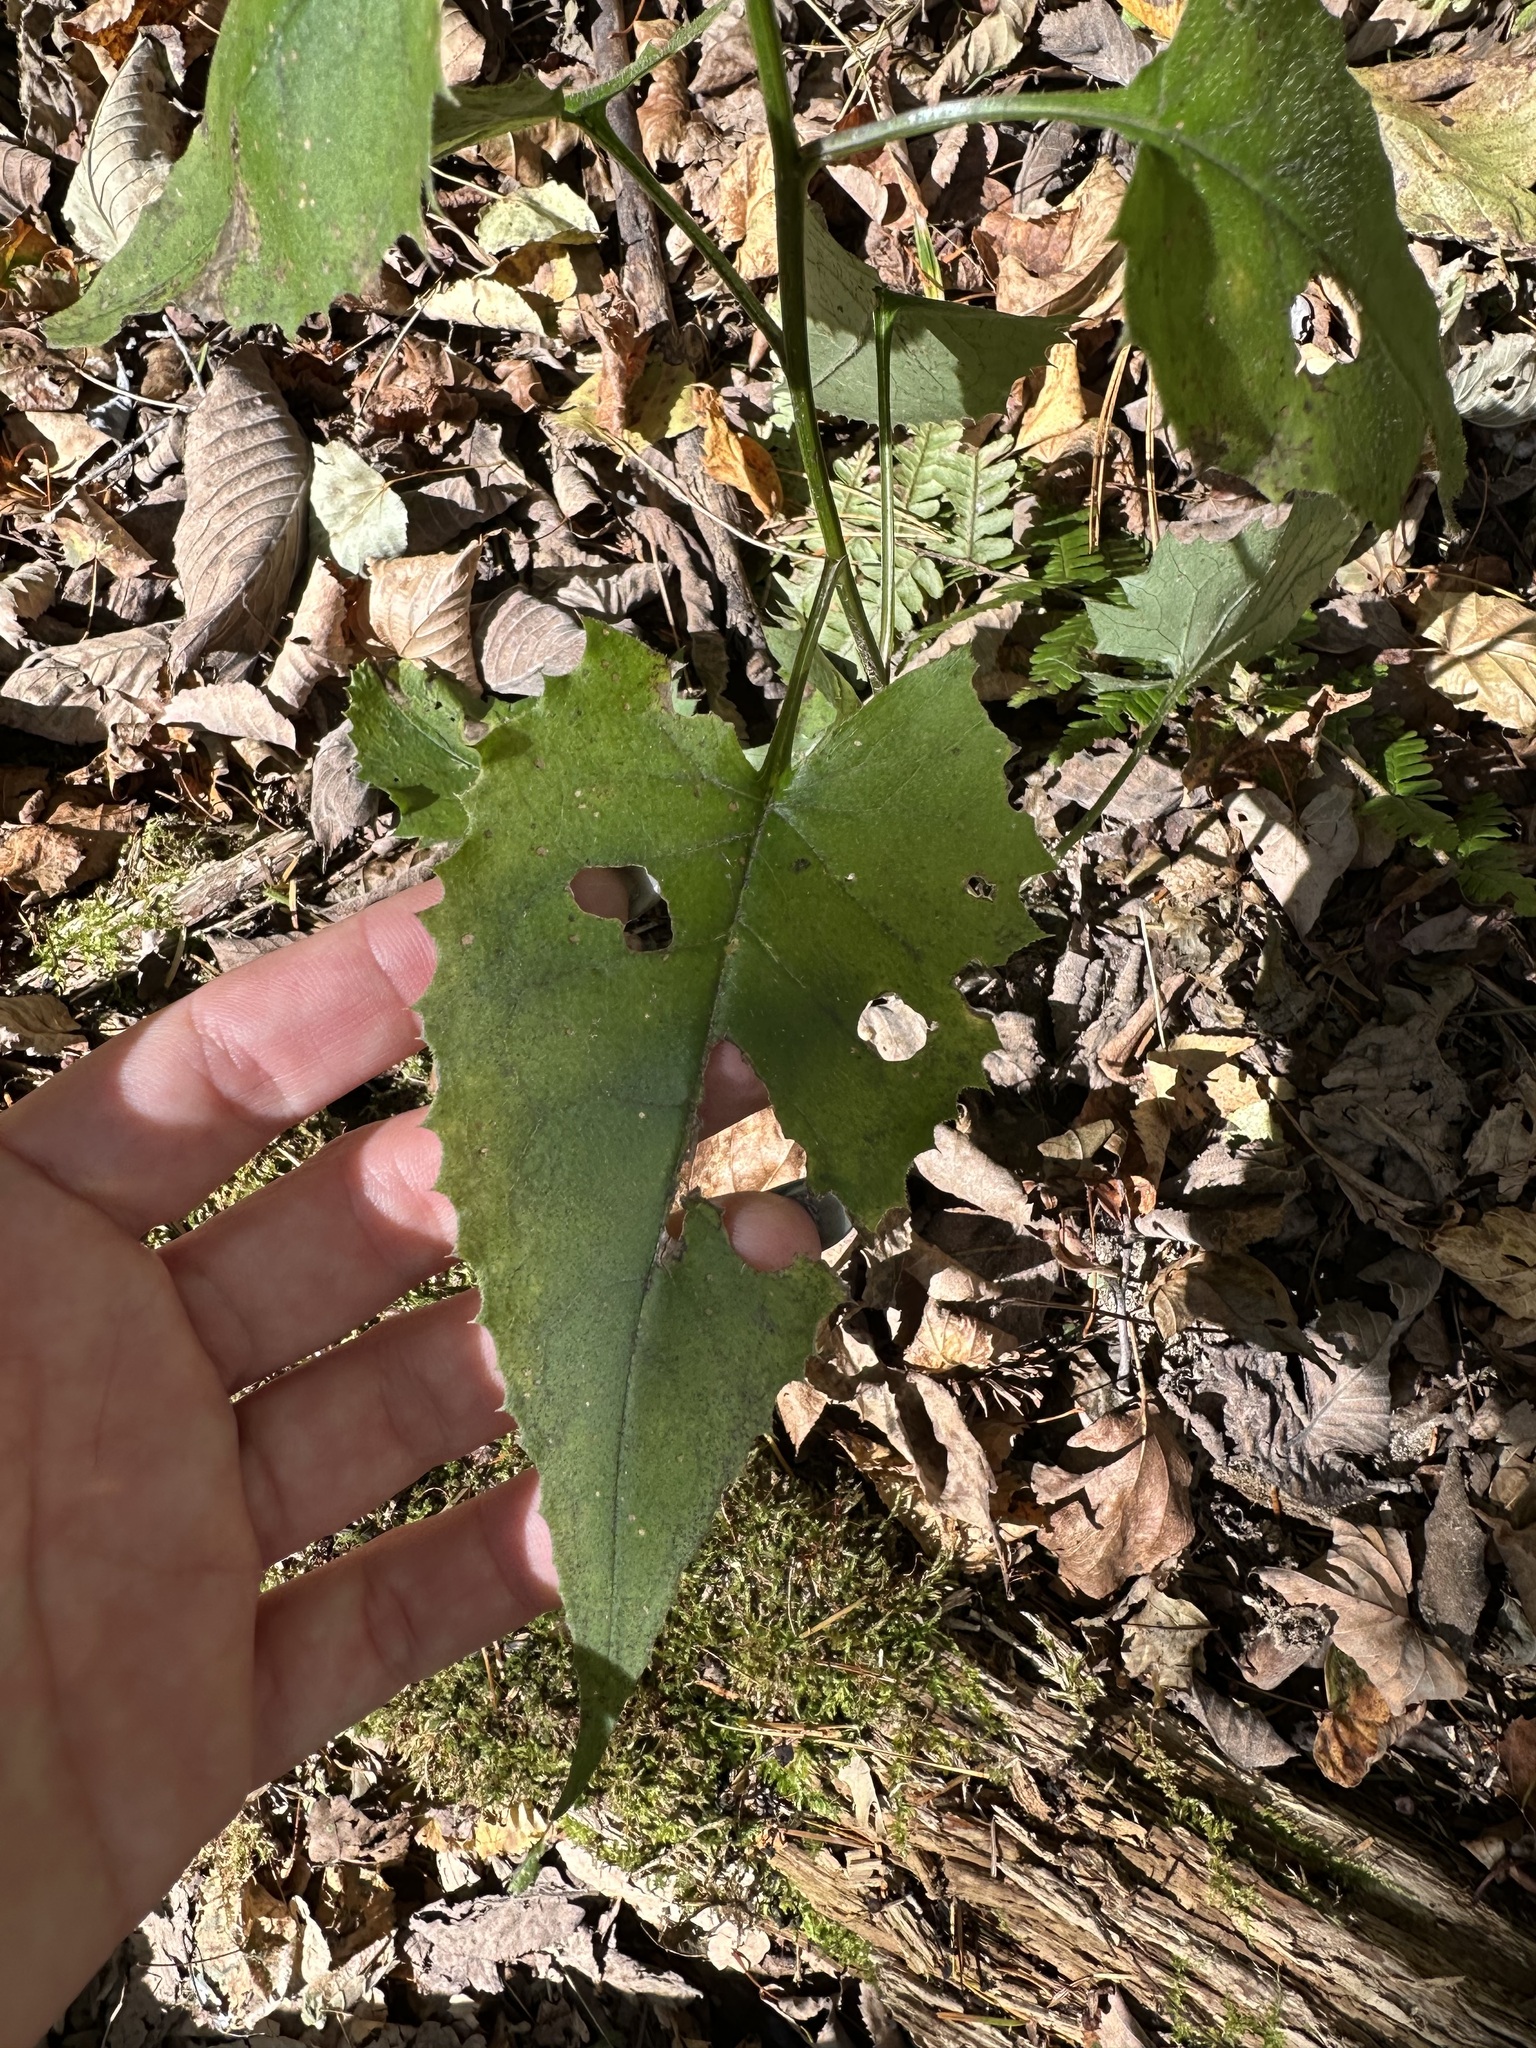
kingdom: Plantae
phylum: Tracheophyta
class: Magnoliopsida
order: Asterales
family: Asteraceae
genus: Saussurea
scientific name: Saussurea subtriangulata
